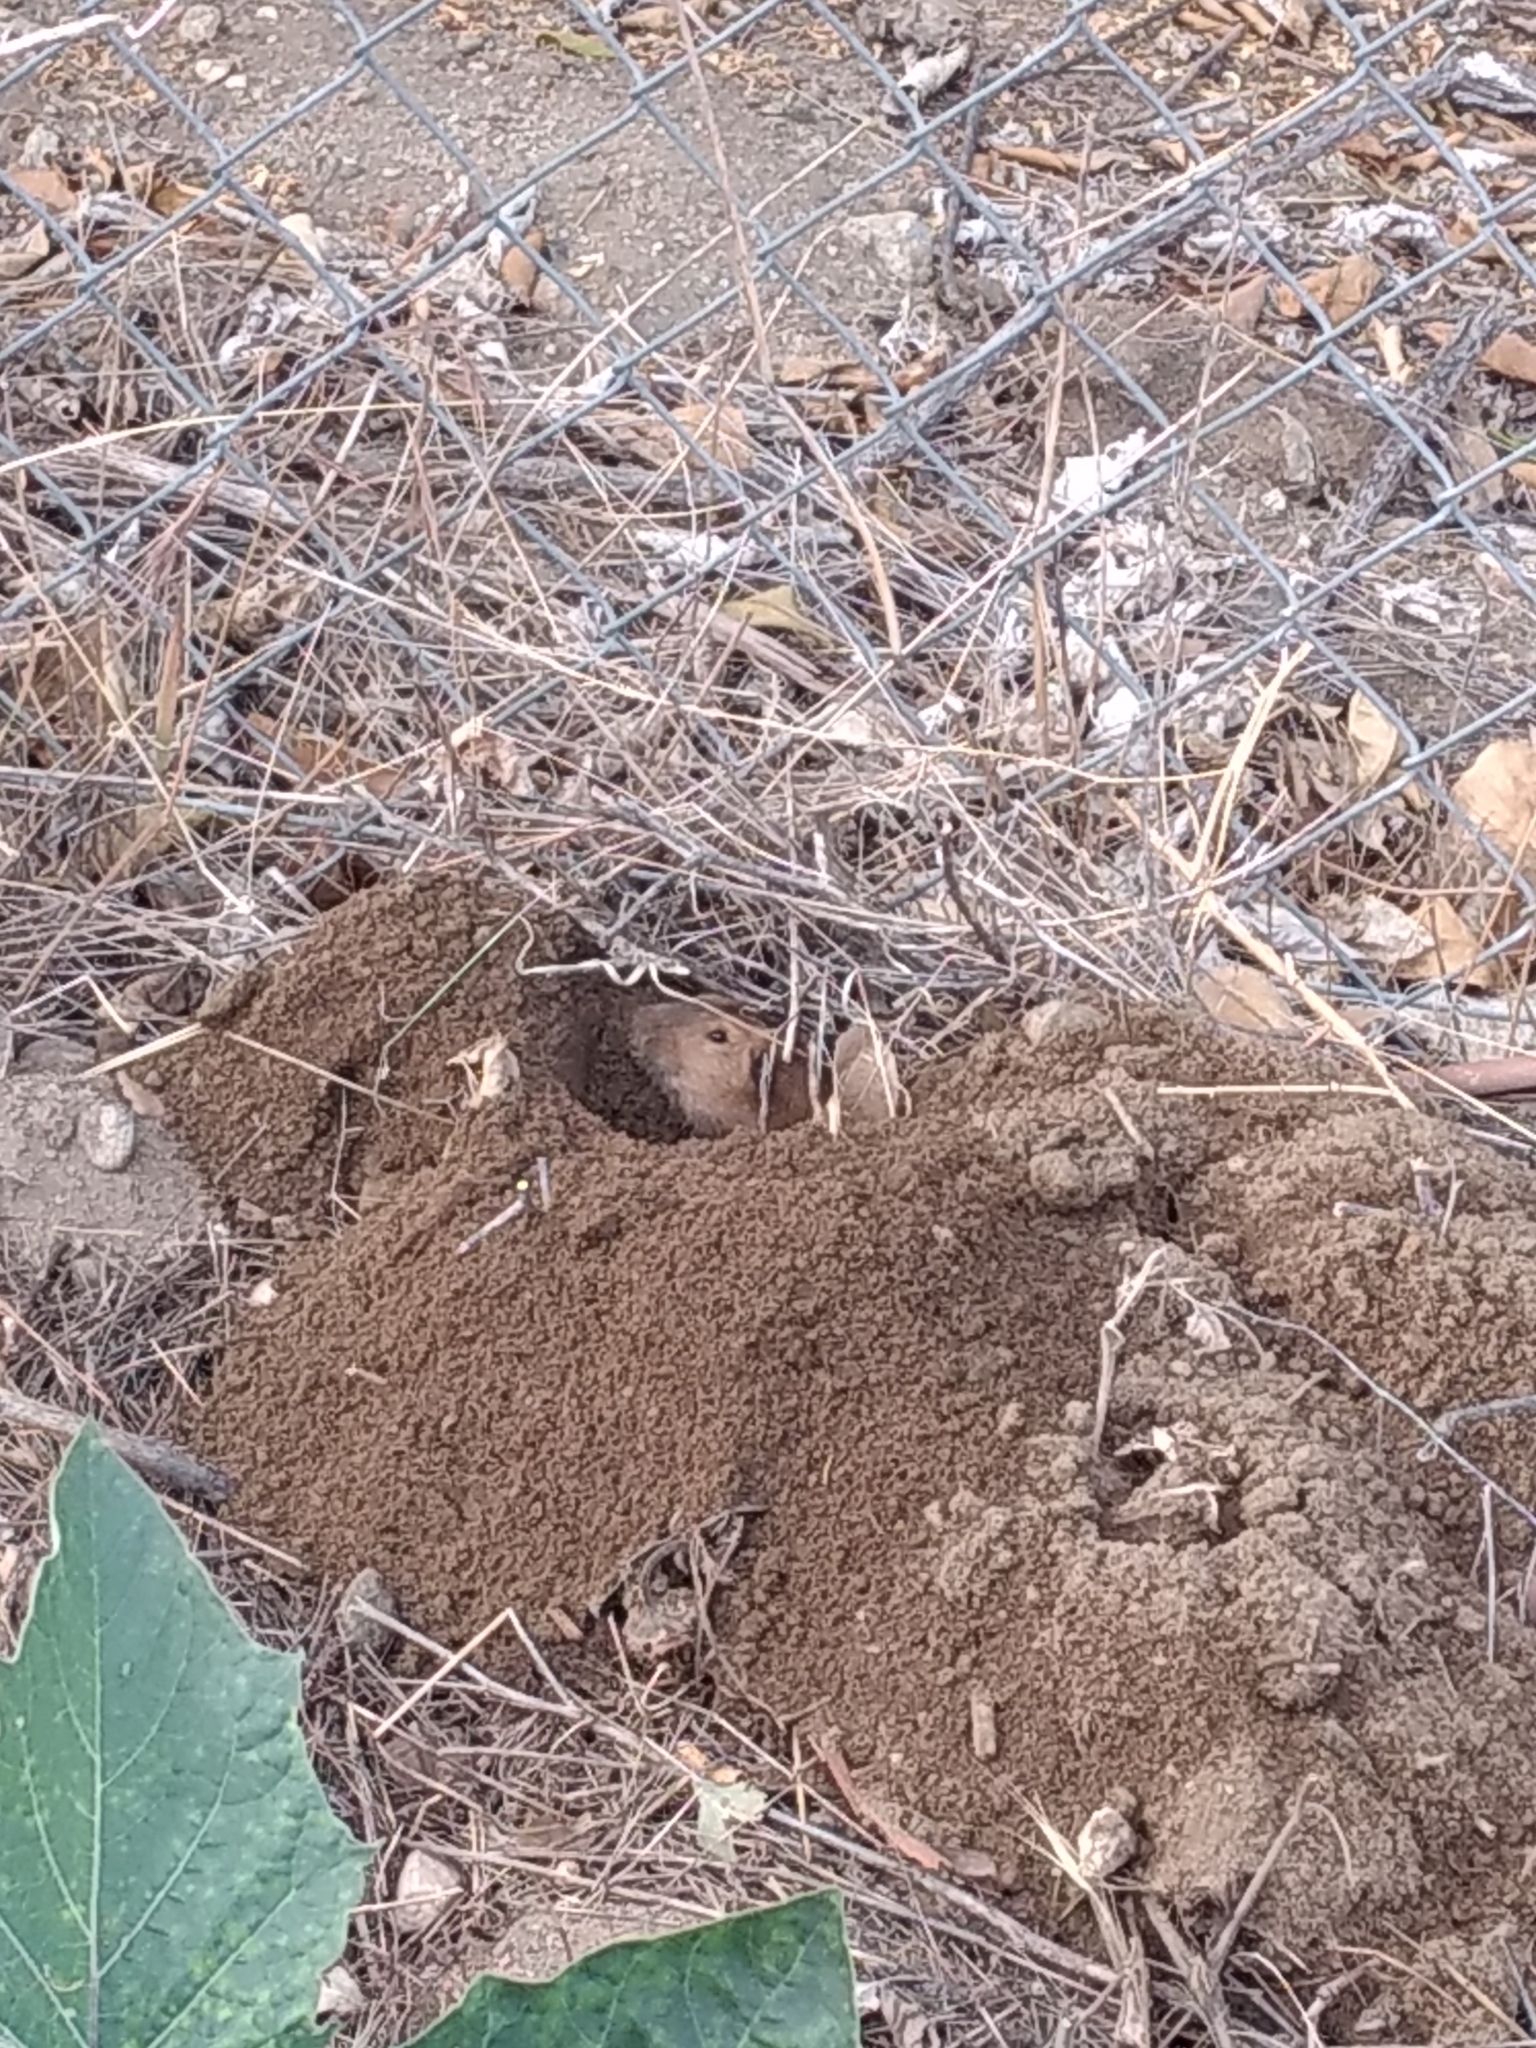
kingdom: Animalia
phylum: Chordata
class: Mammalia
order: Rodentia
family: Geomyidae
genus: Thomomys
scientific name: Thomomys bottae
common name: Botta's pocket gopher
